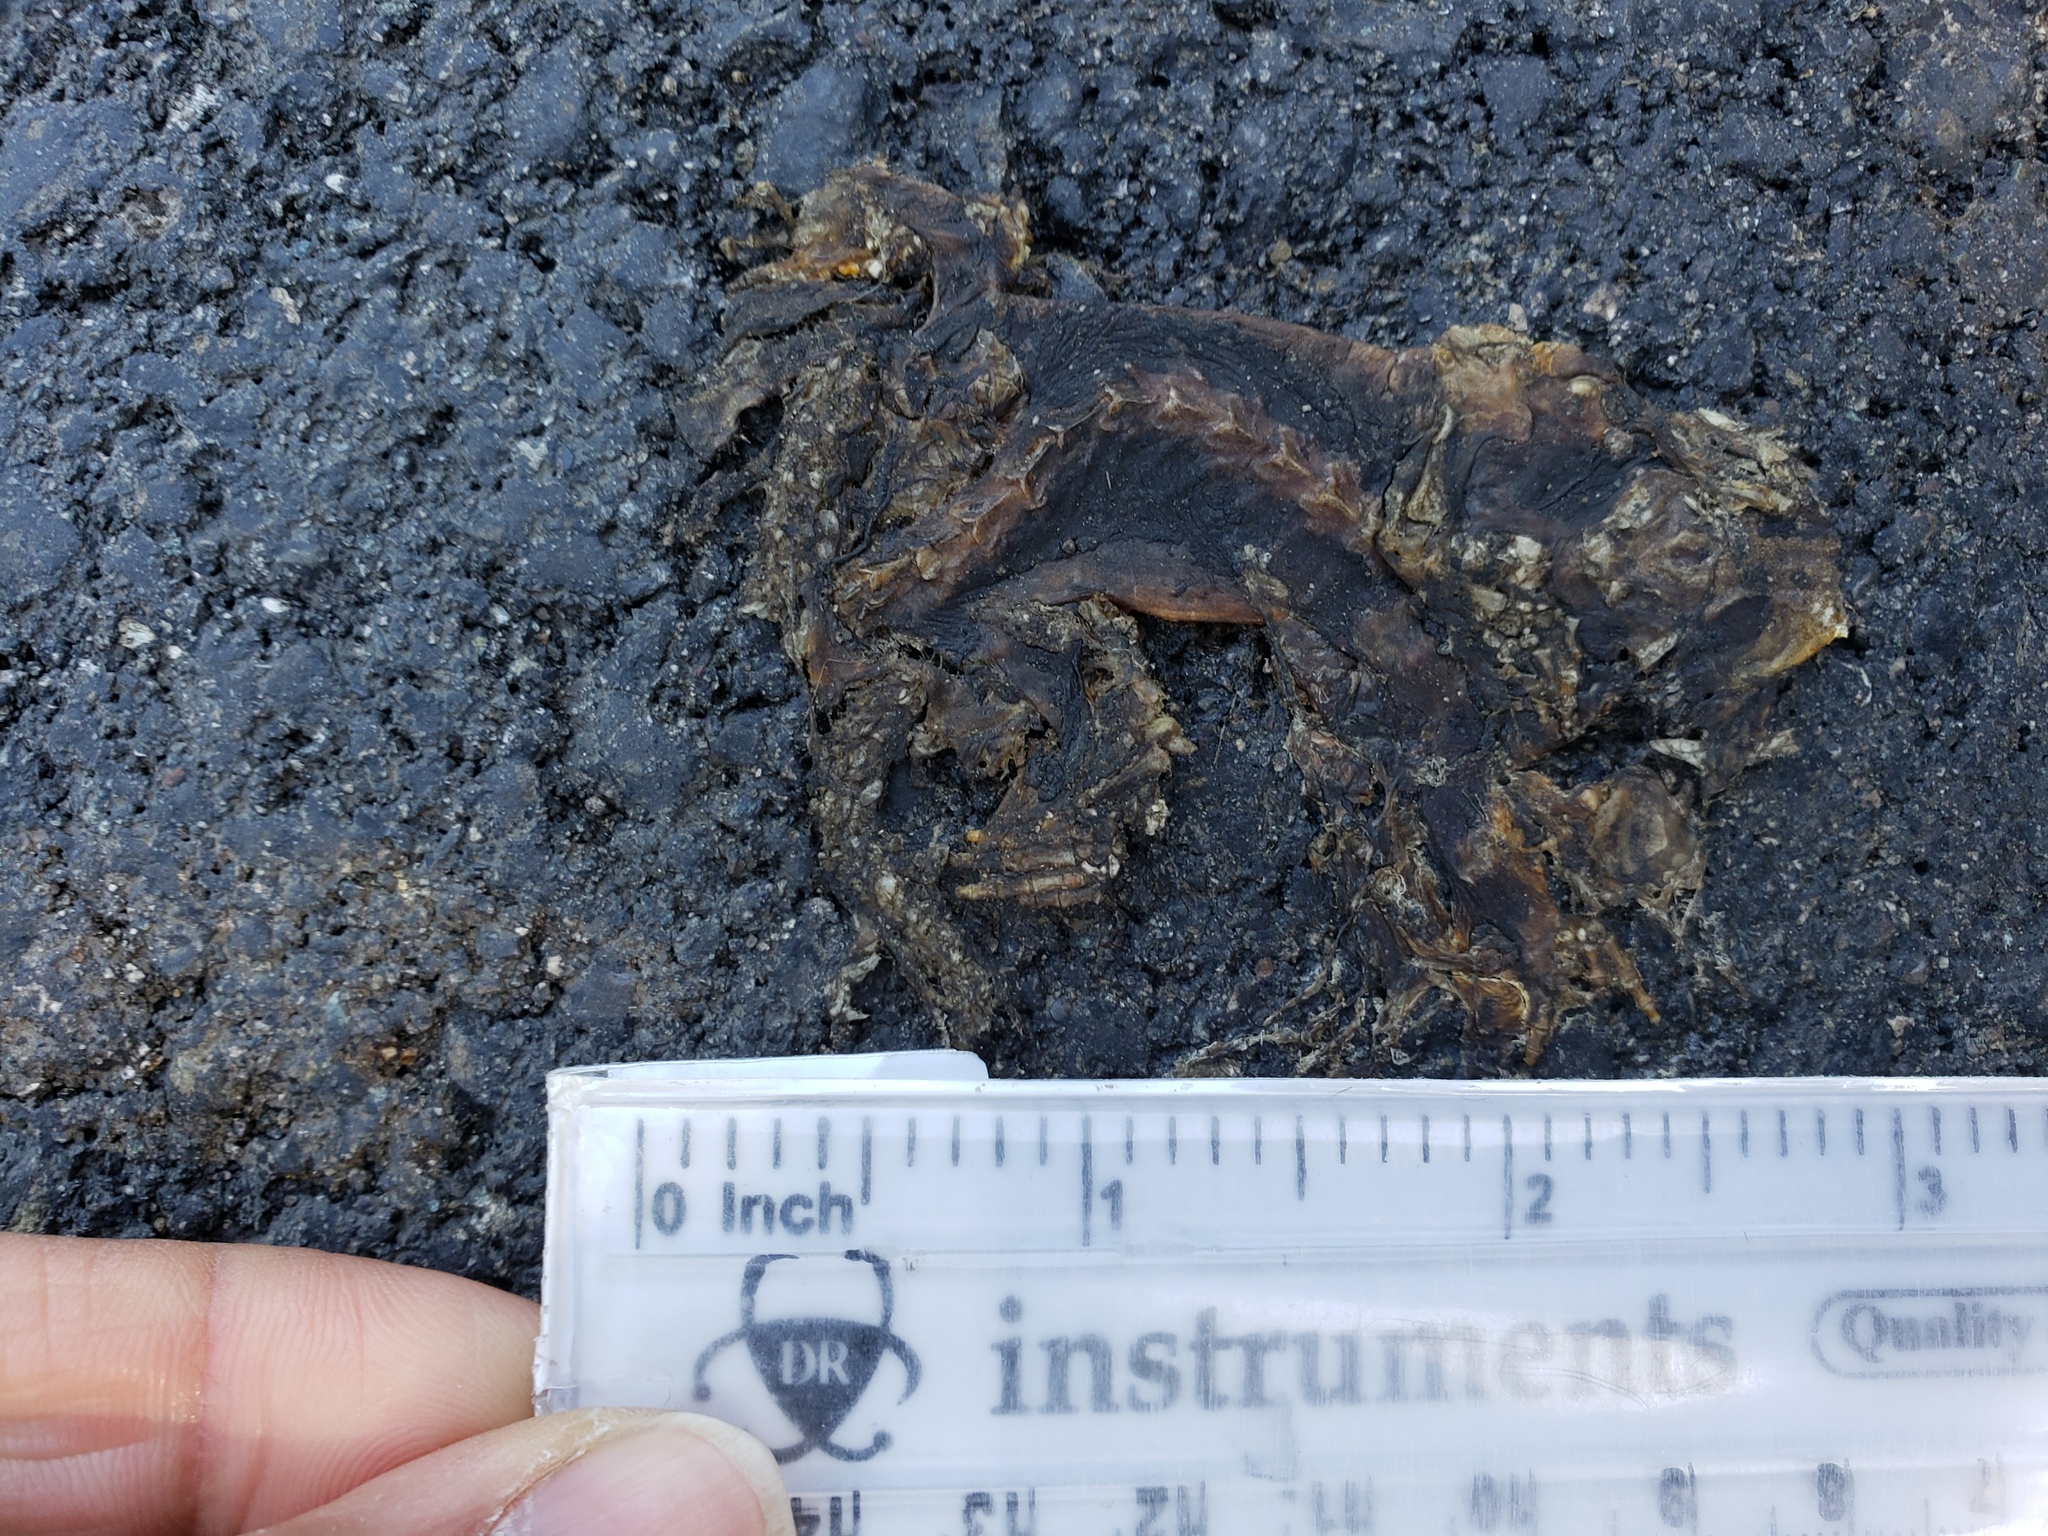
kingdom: Animalia
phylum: Chordata
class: Amphibia
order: Caudata
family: Salamandridae
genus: Taricha
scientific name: Taricha
